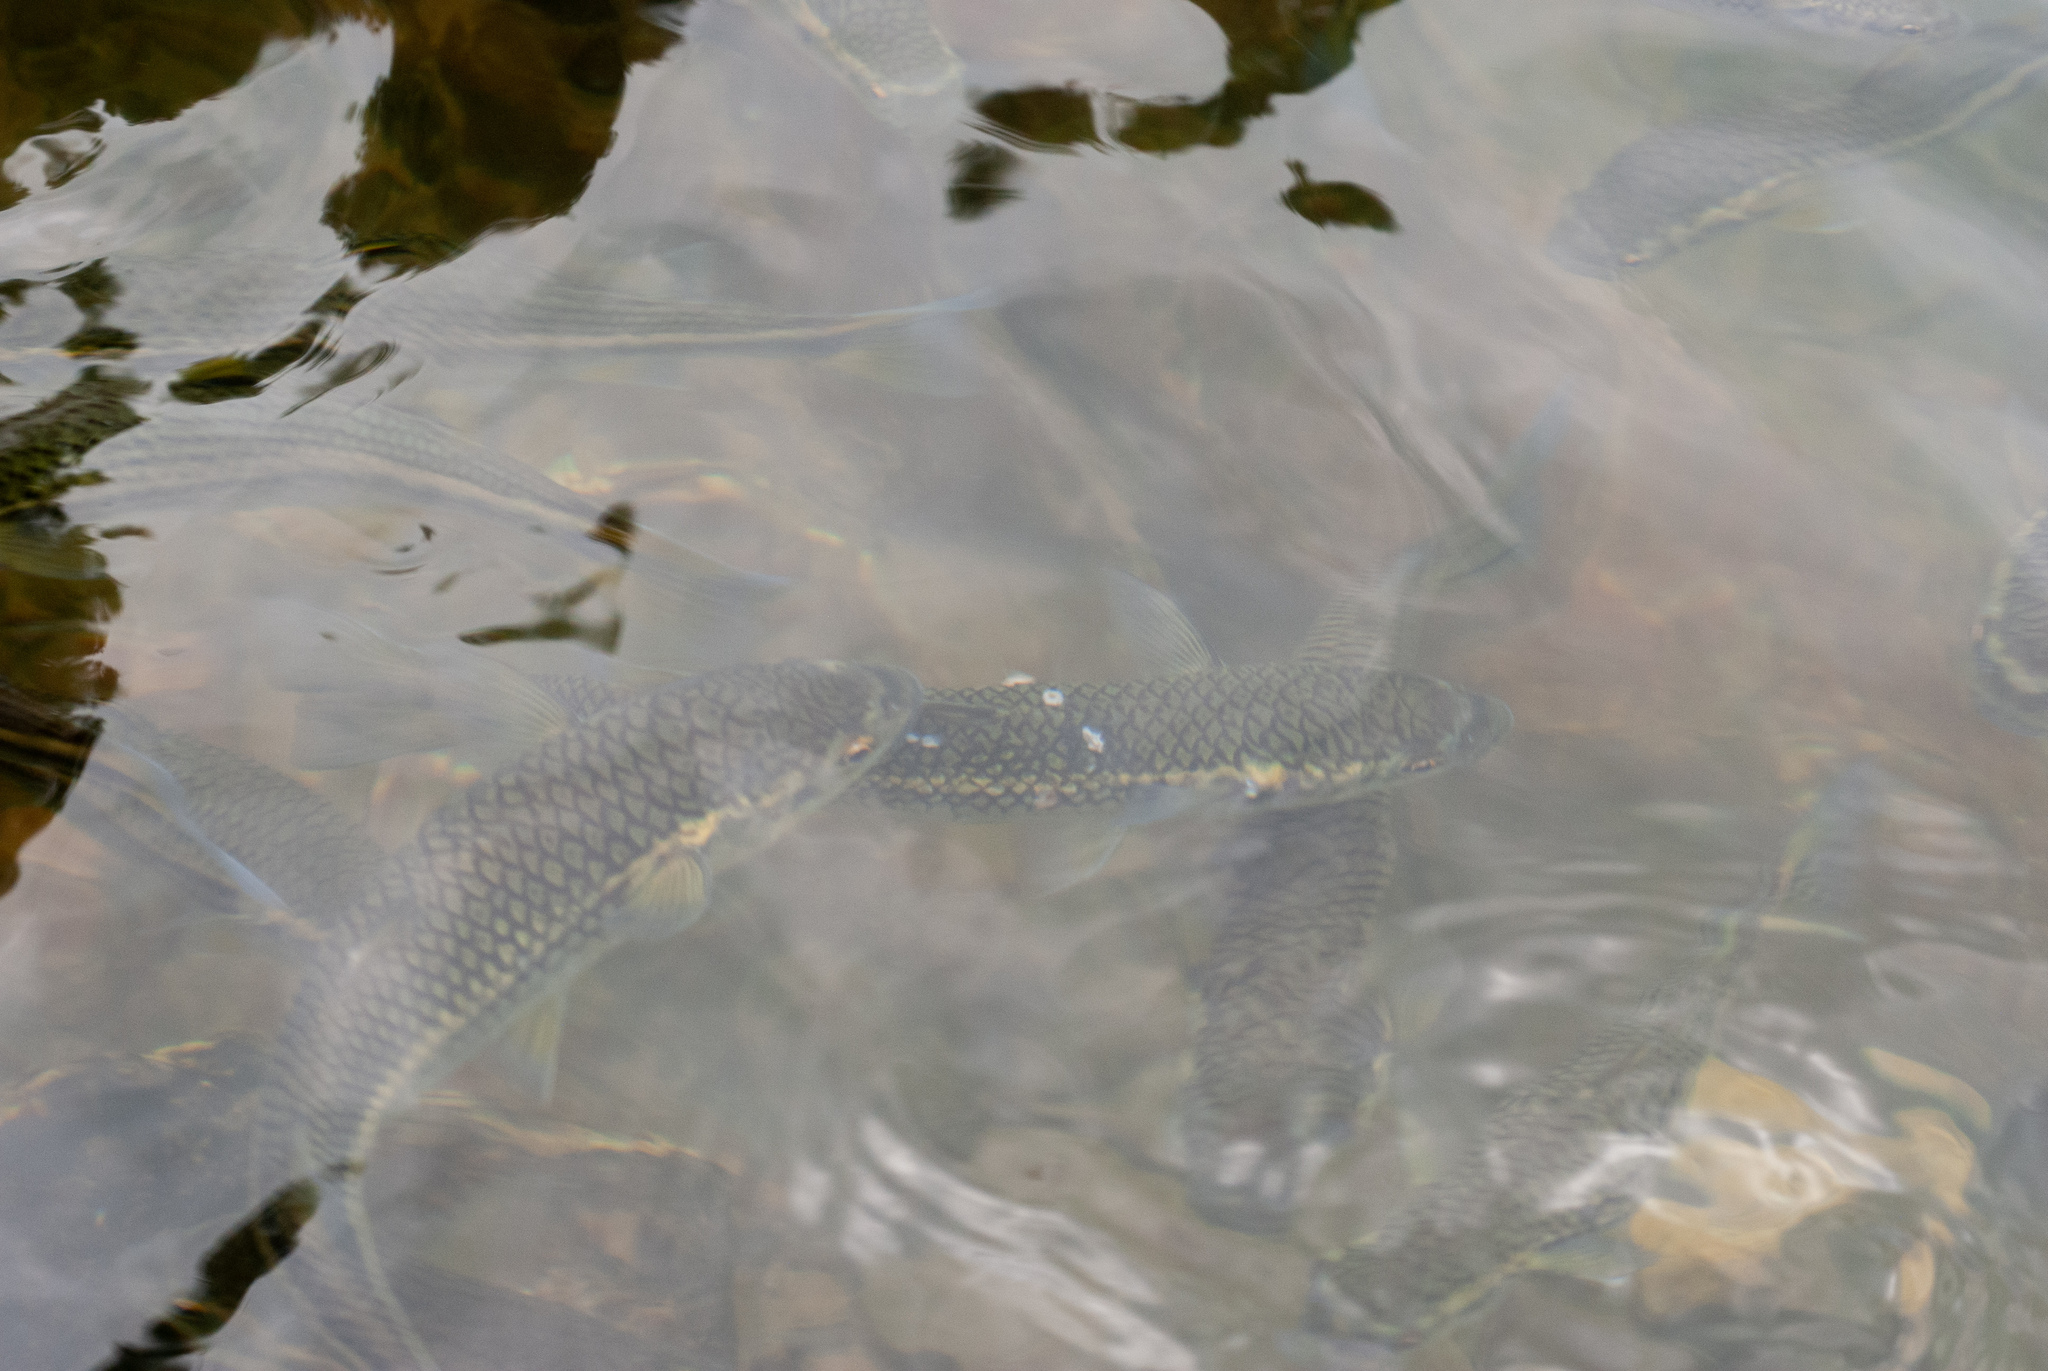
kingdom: Animalia
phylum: Chordata
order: Mugiliformes
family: Mugilidae
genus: Dajaus
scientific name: Dajaus monticola
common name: Mountain mullet
